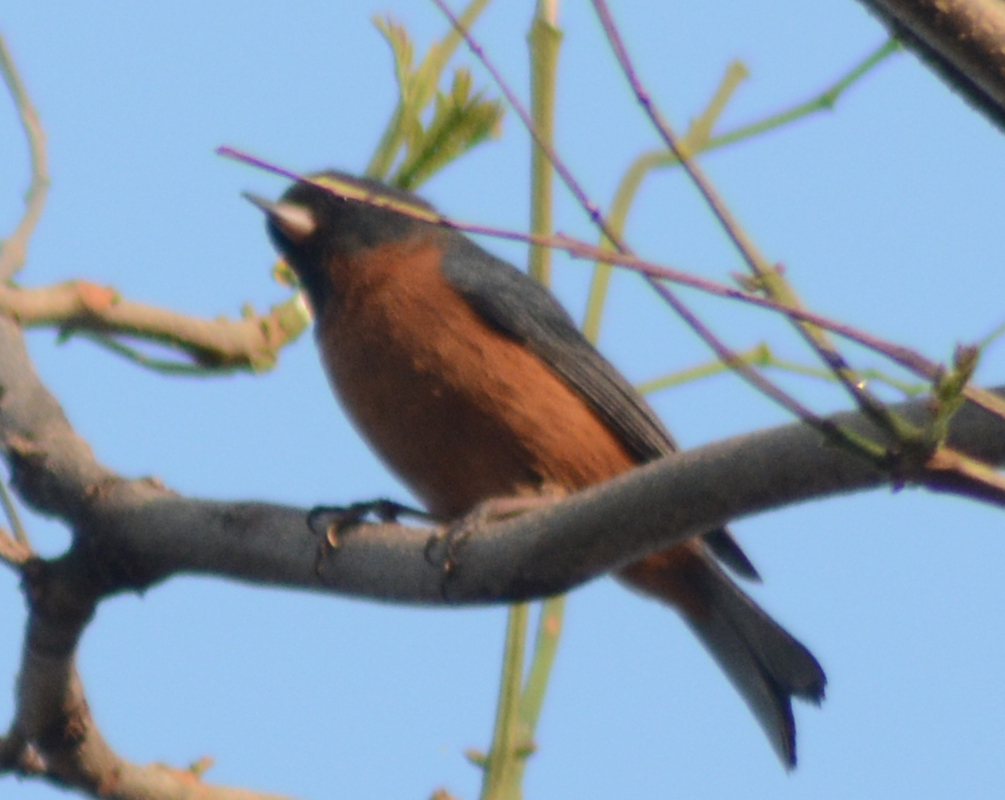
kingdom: Animalia
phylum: Chordata
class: Aves
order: Passeriformes
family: Thraupidae
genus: Diglossa
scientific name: Diglossa baritula
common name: Cinnamon-bellied flowerpiercer
